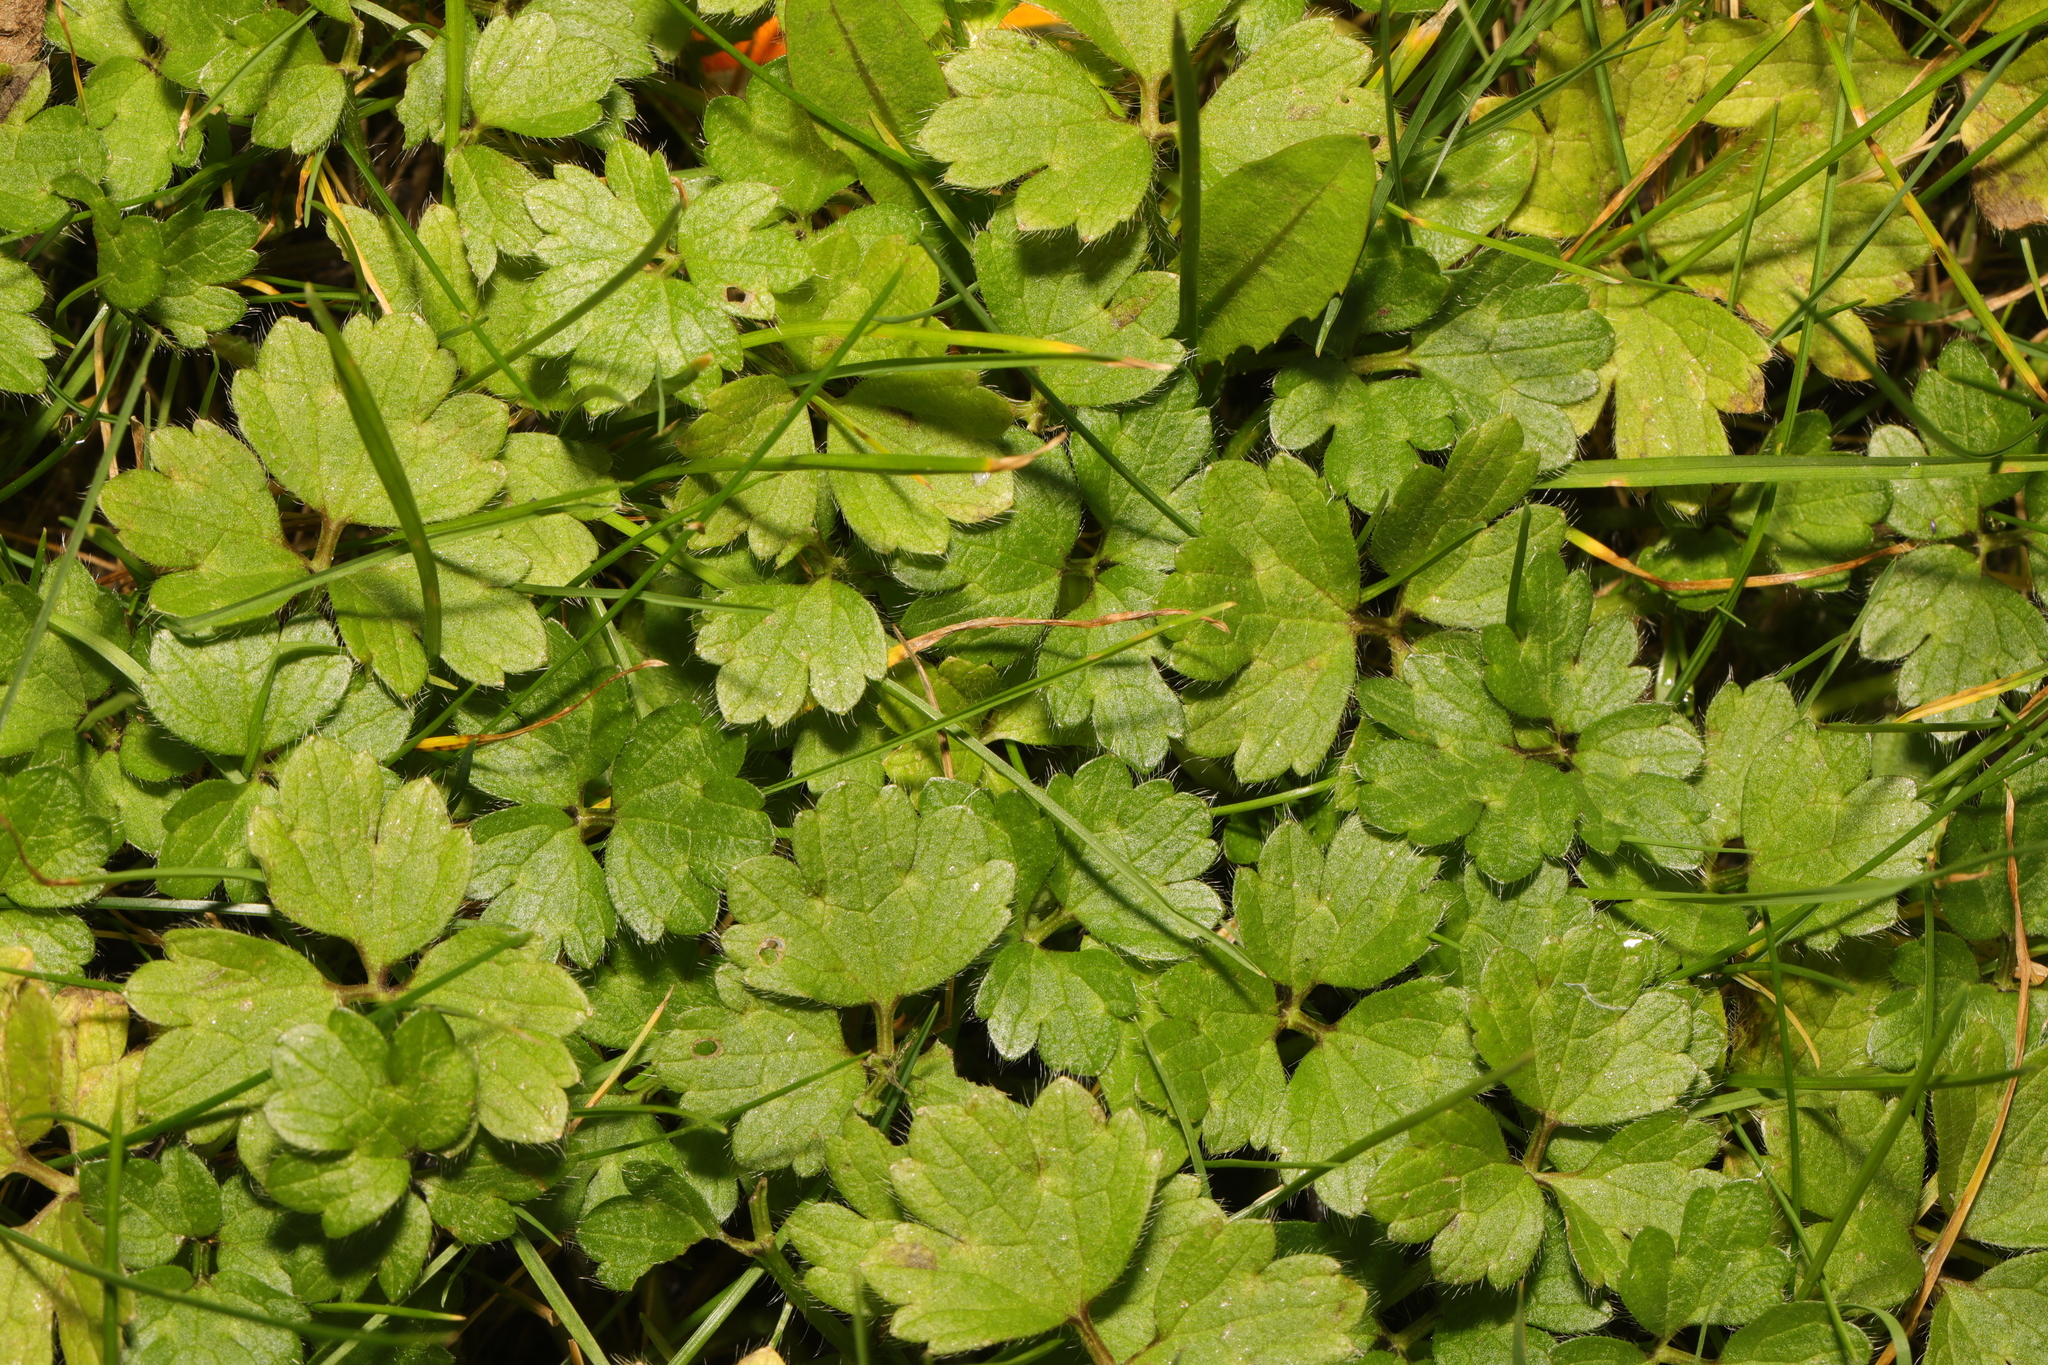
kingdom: Plantae
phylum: Tracheophyta
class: Magnoliopsida
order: Ranunculales
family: Ranunculaceae
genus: Ranunculus
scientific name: Ranunculus repens
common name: Creeping buttercup
